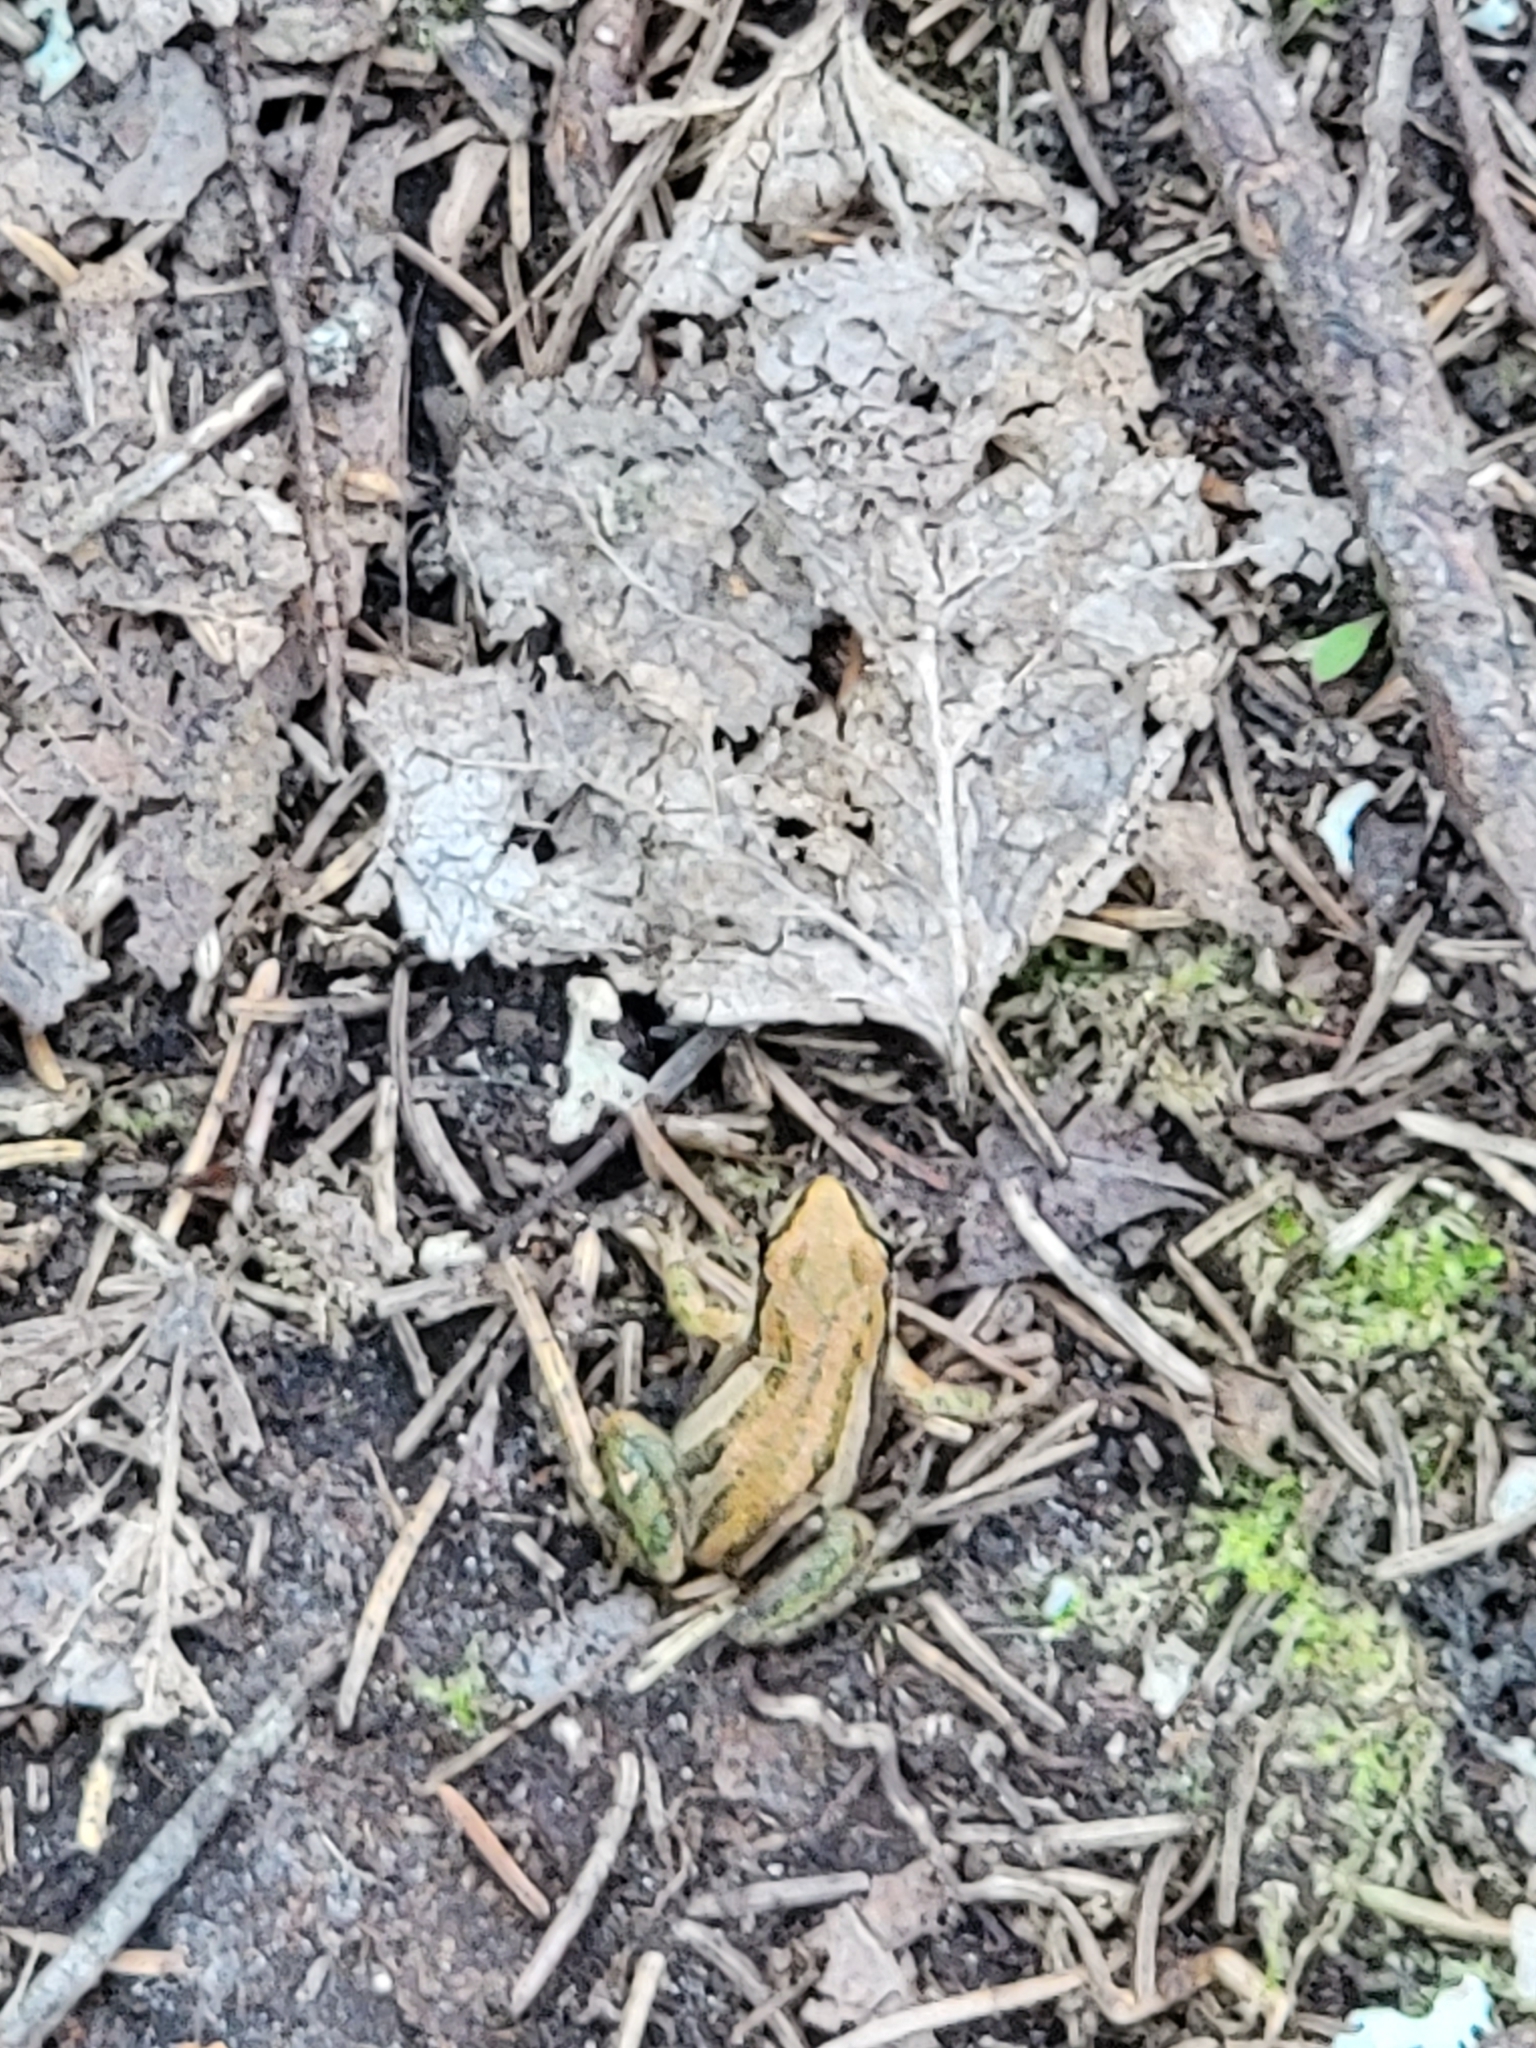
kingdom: Animalia
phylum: Chordata
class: Amphibia
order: Anura
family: Hylidae
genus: Pseudacris
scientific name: Pseudacris maculata
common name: Boreal chorus frog
